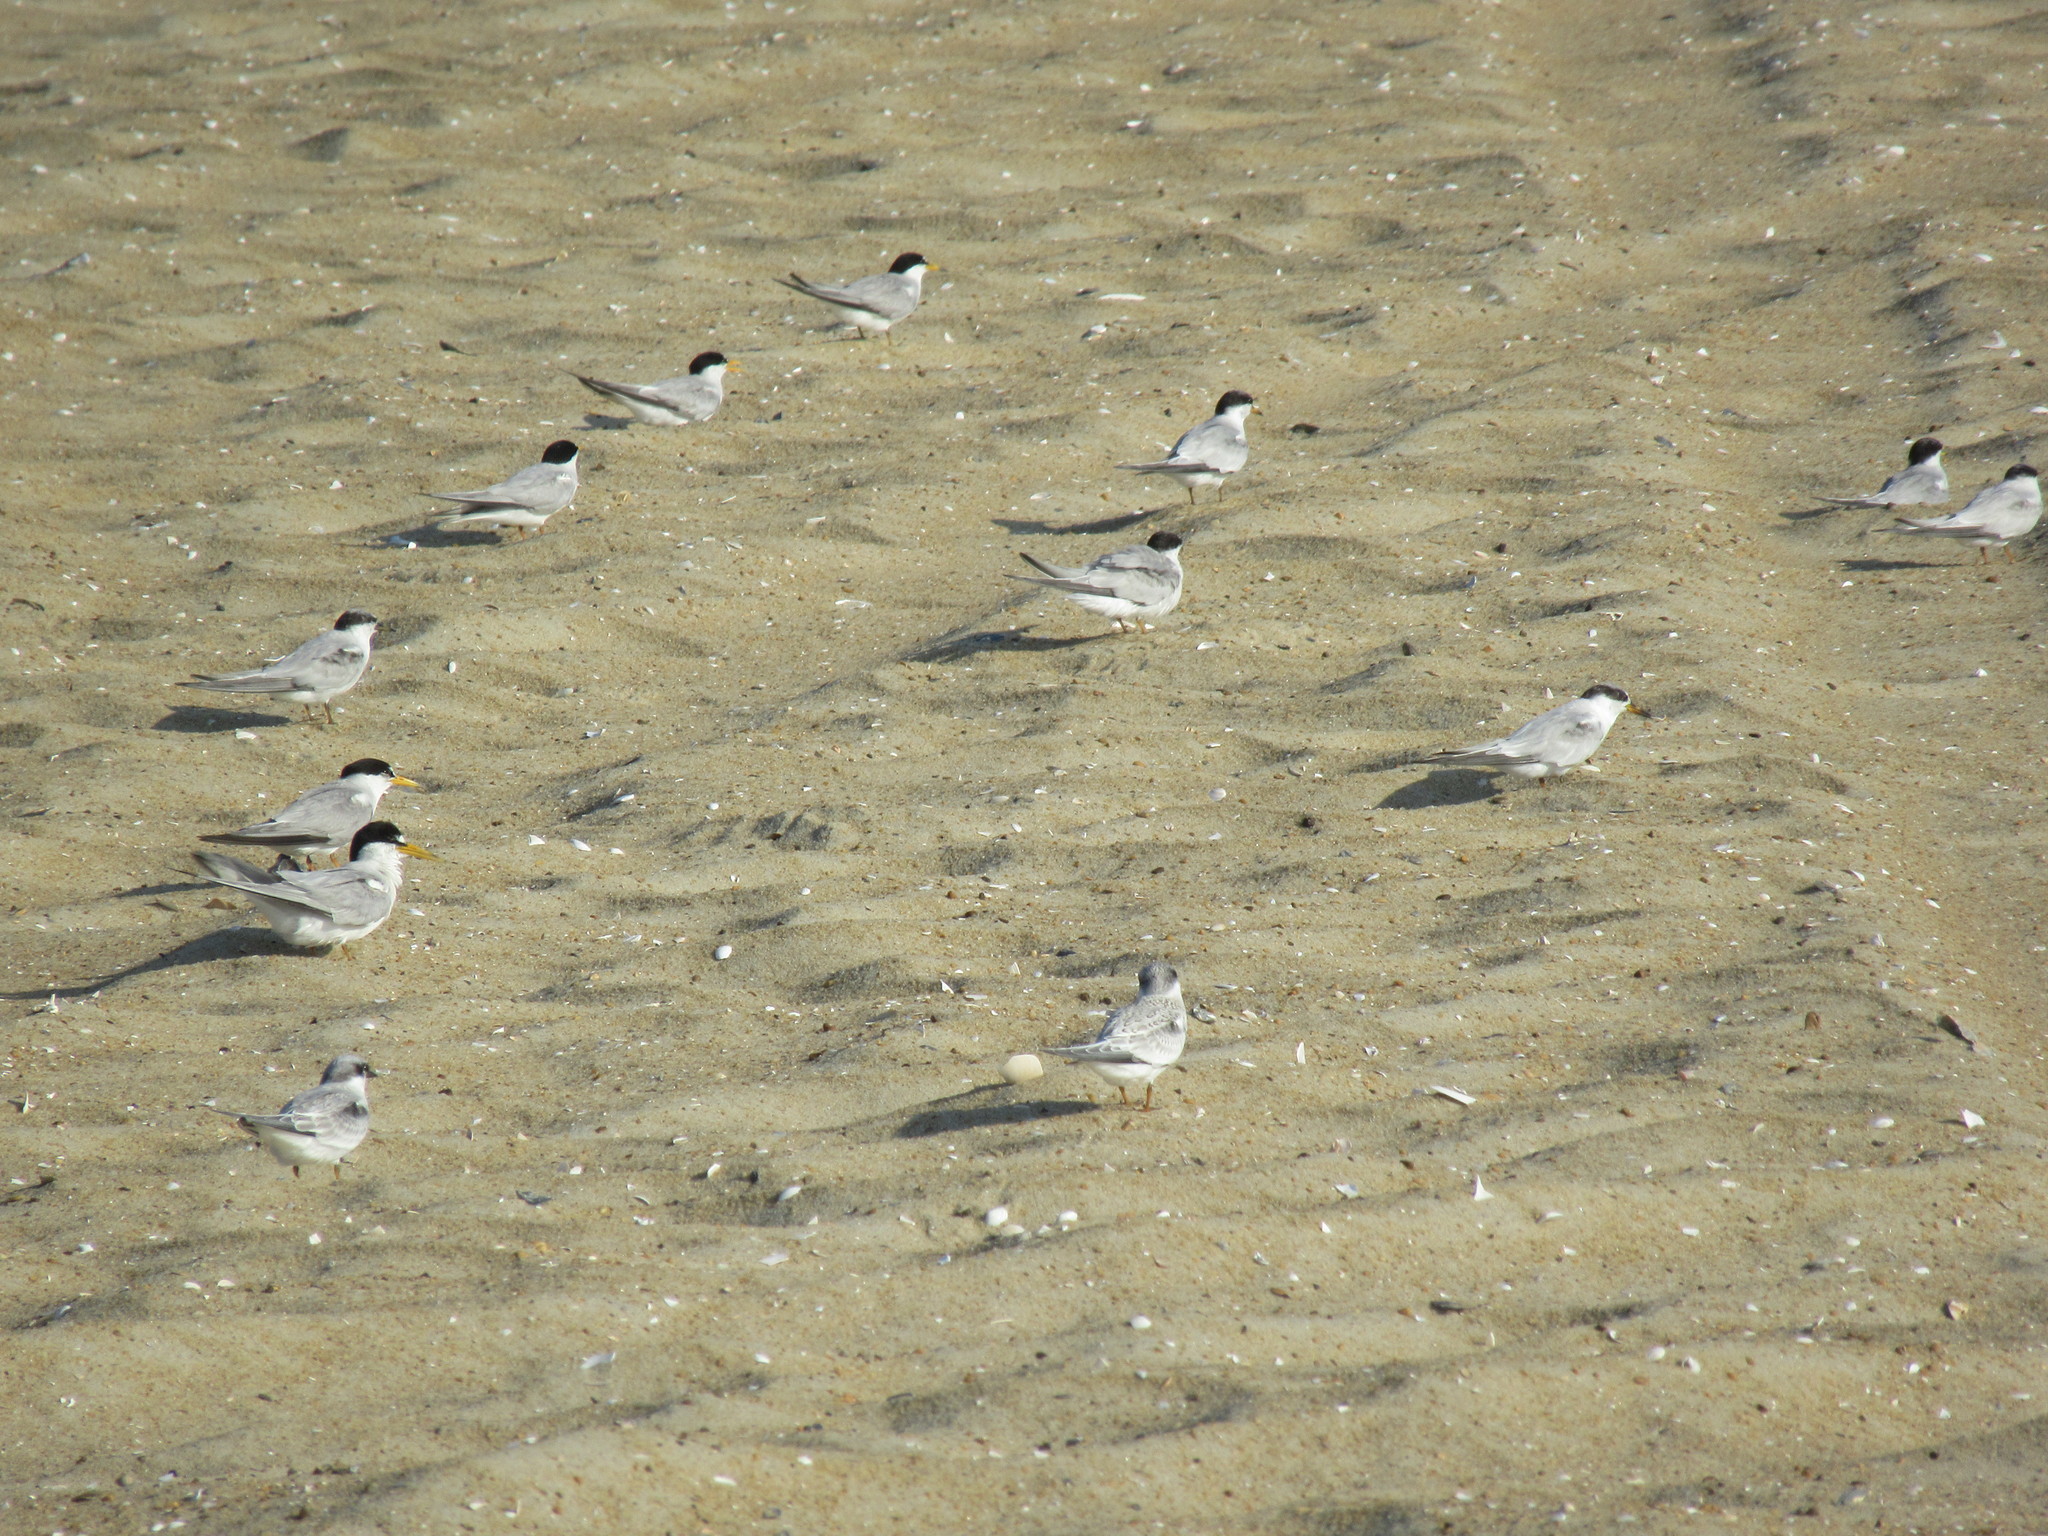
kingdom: Animalia
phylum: Chordata
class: Aves
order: Charadriiformes
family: Laridae
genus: Sternula
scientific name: Sternula antillarum
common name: Least tern
